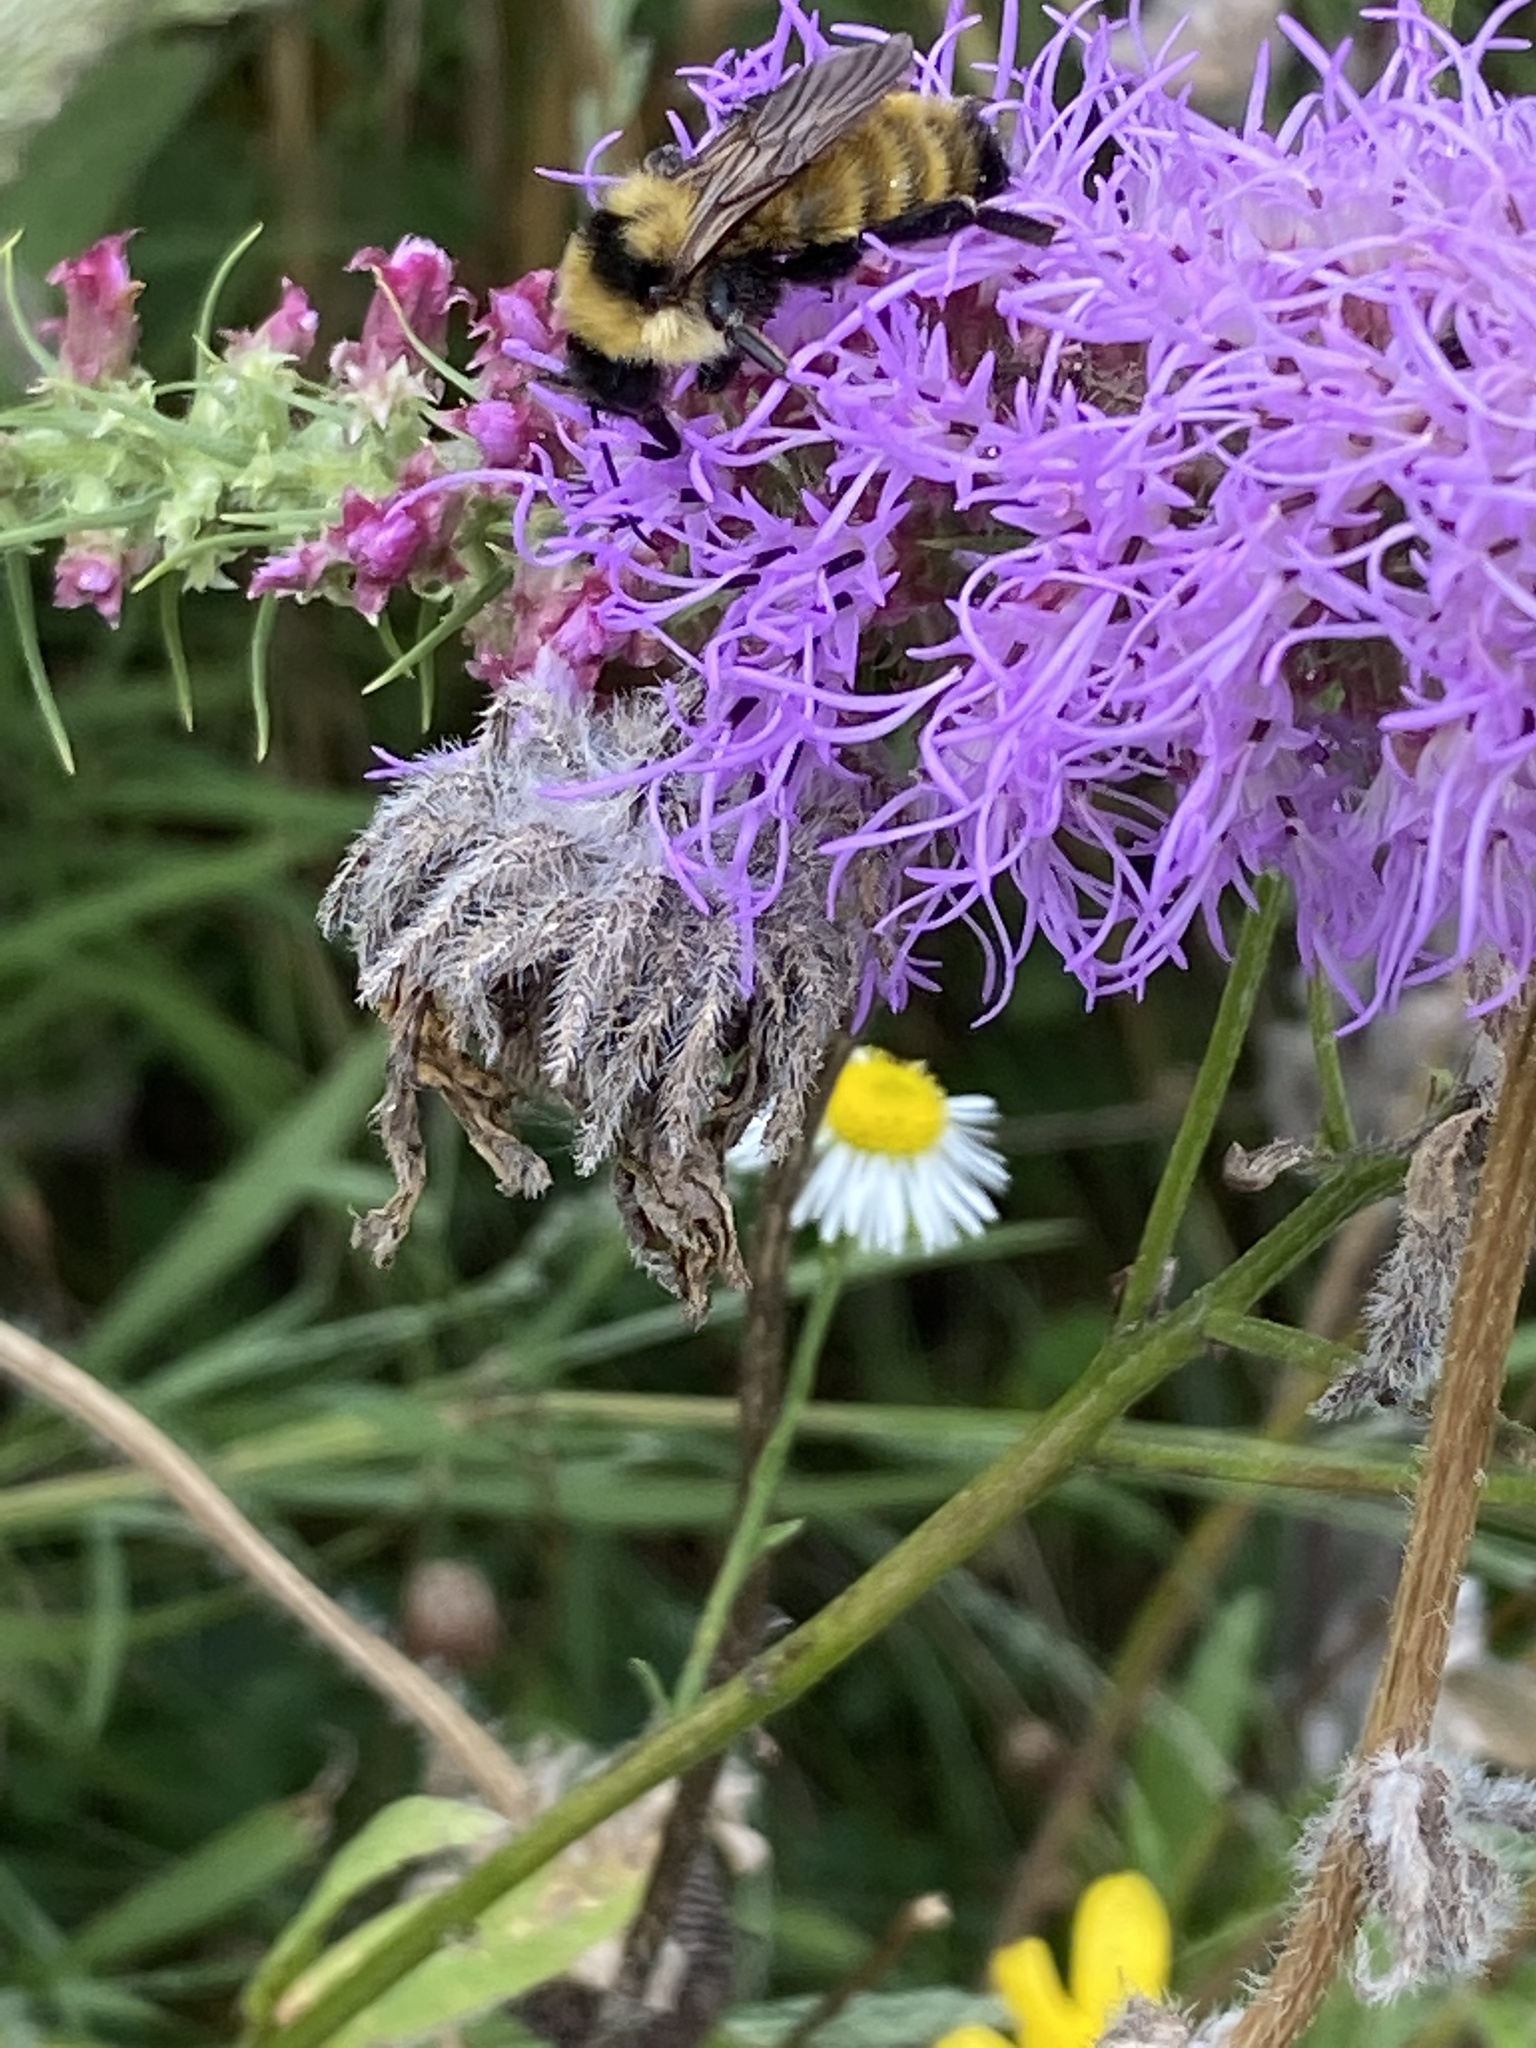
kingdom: Animalia
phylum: Arthropoda
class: Insecta
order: Hymenoptera
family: Apidae
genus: Bombus
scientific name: Bombus fervidus
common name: Yellow bumble bee
